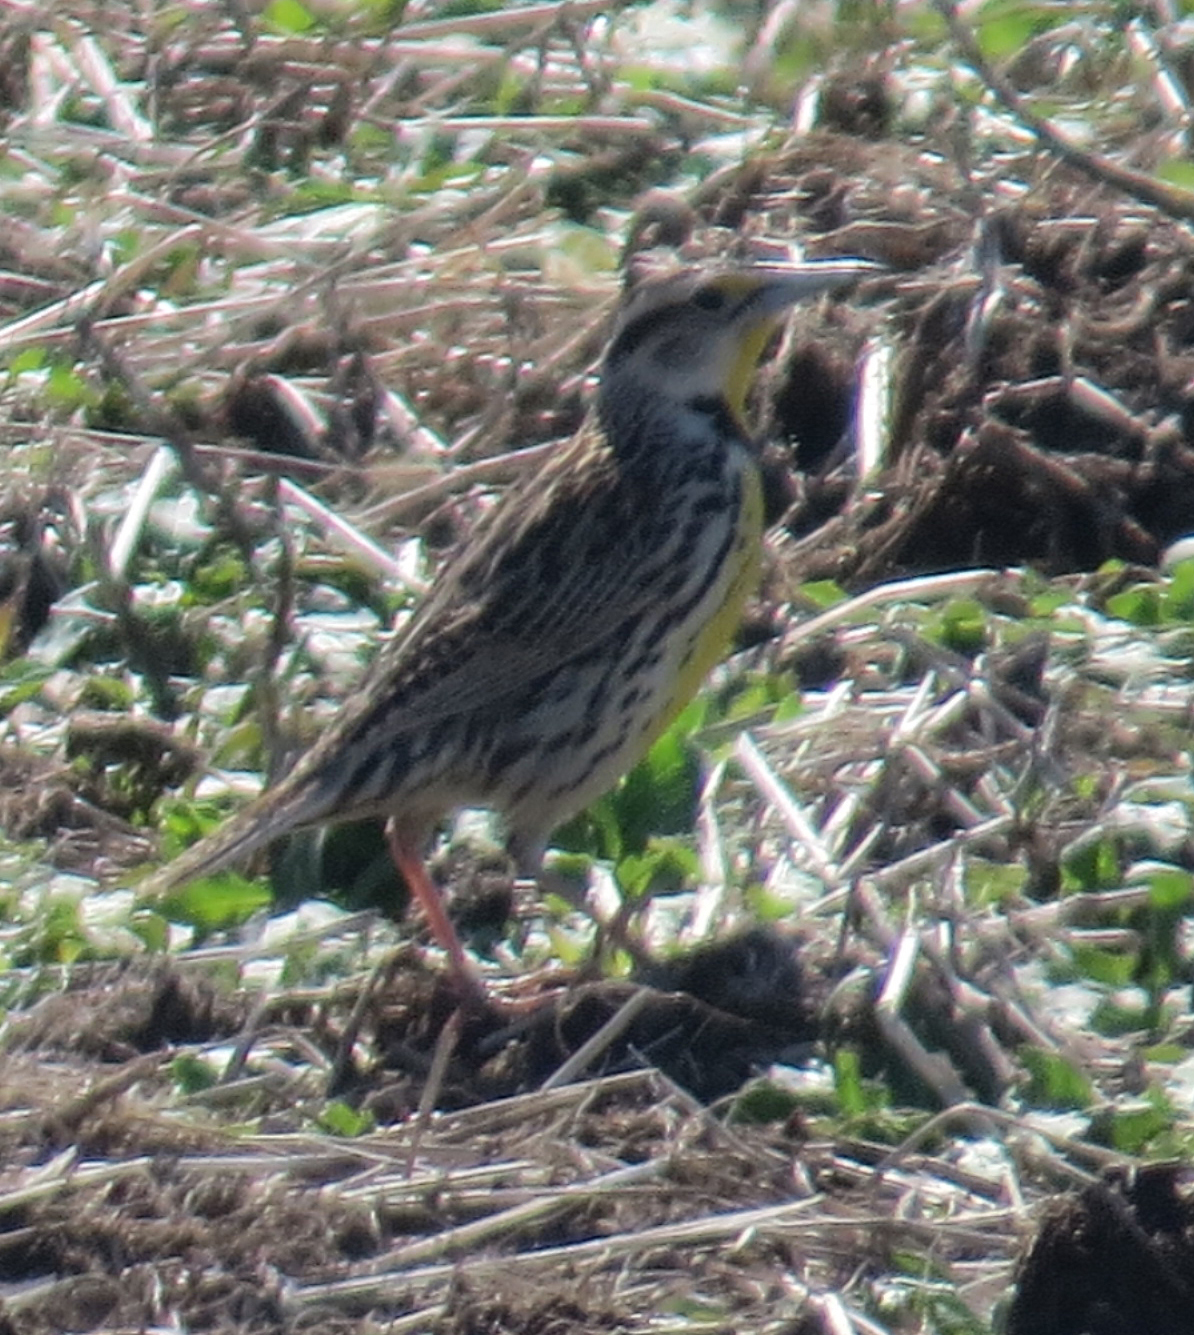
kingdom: Animalia
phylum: Chordata
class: Aves
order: Passeriformes
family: Icteridae
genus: Sturnella
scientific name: Sturnella magna
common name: Eastern meadowlark
